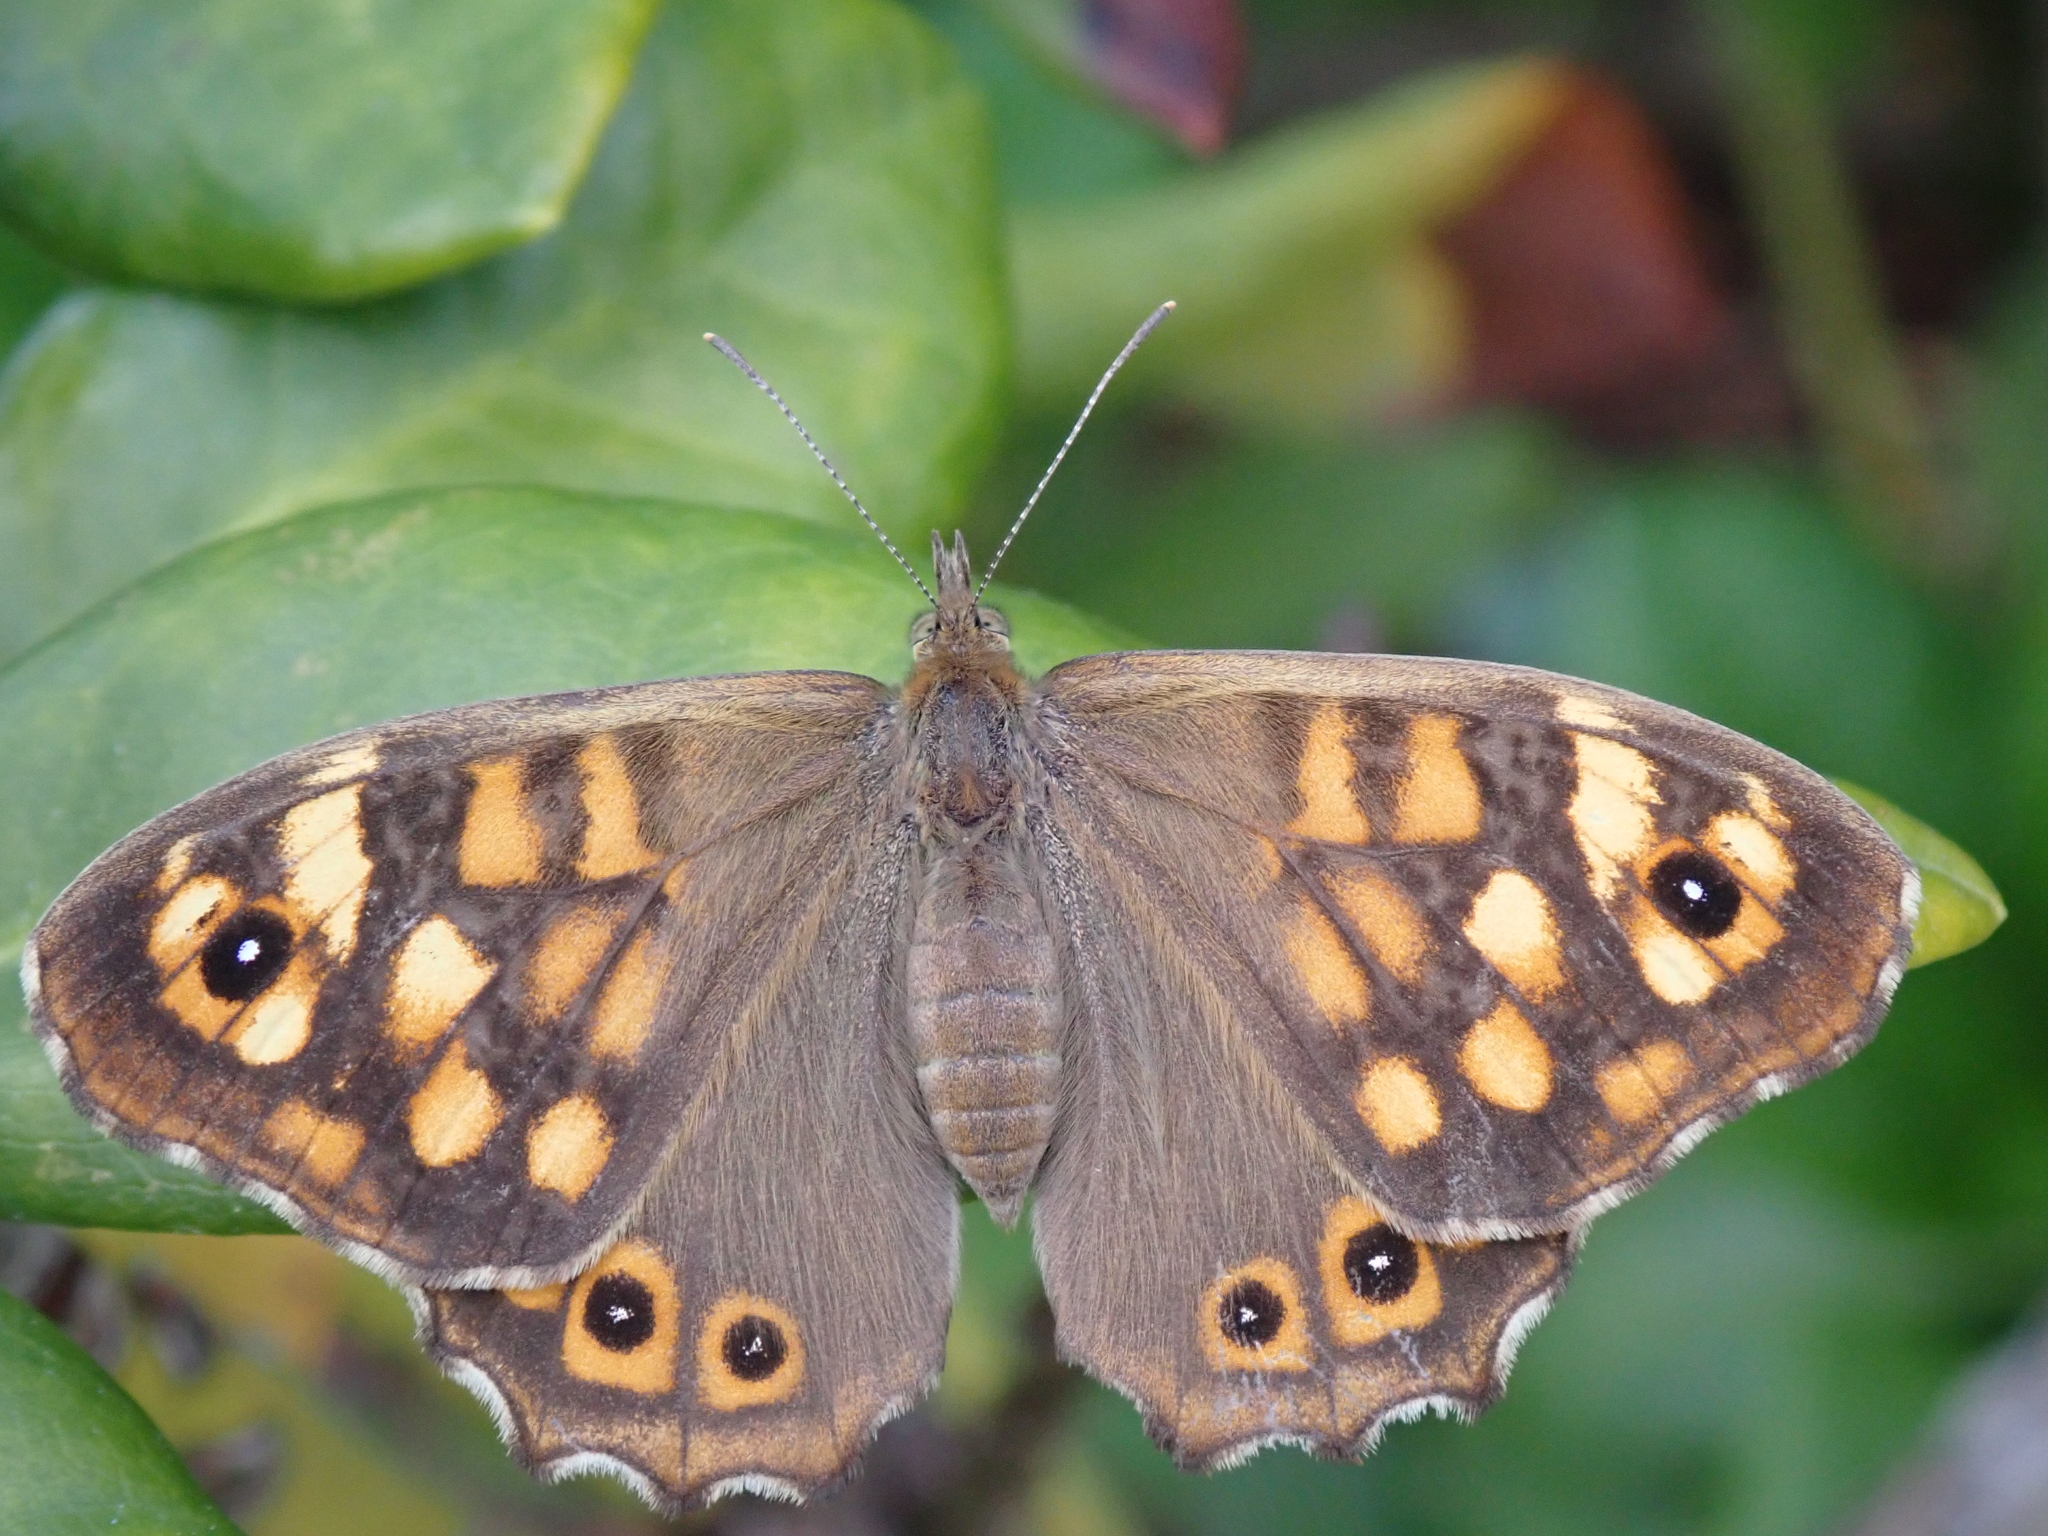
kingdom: Animalia
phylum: Arthropoda
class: Insecta
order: Lepidoptera
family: Nymphalidae
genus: Pararge
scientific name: Pararge aegeria
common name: Speckled wood
